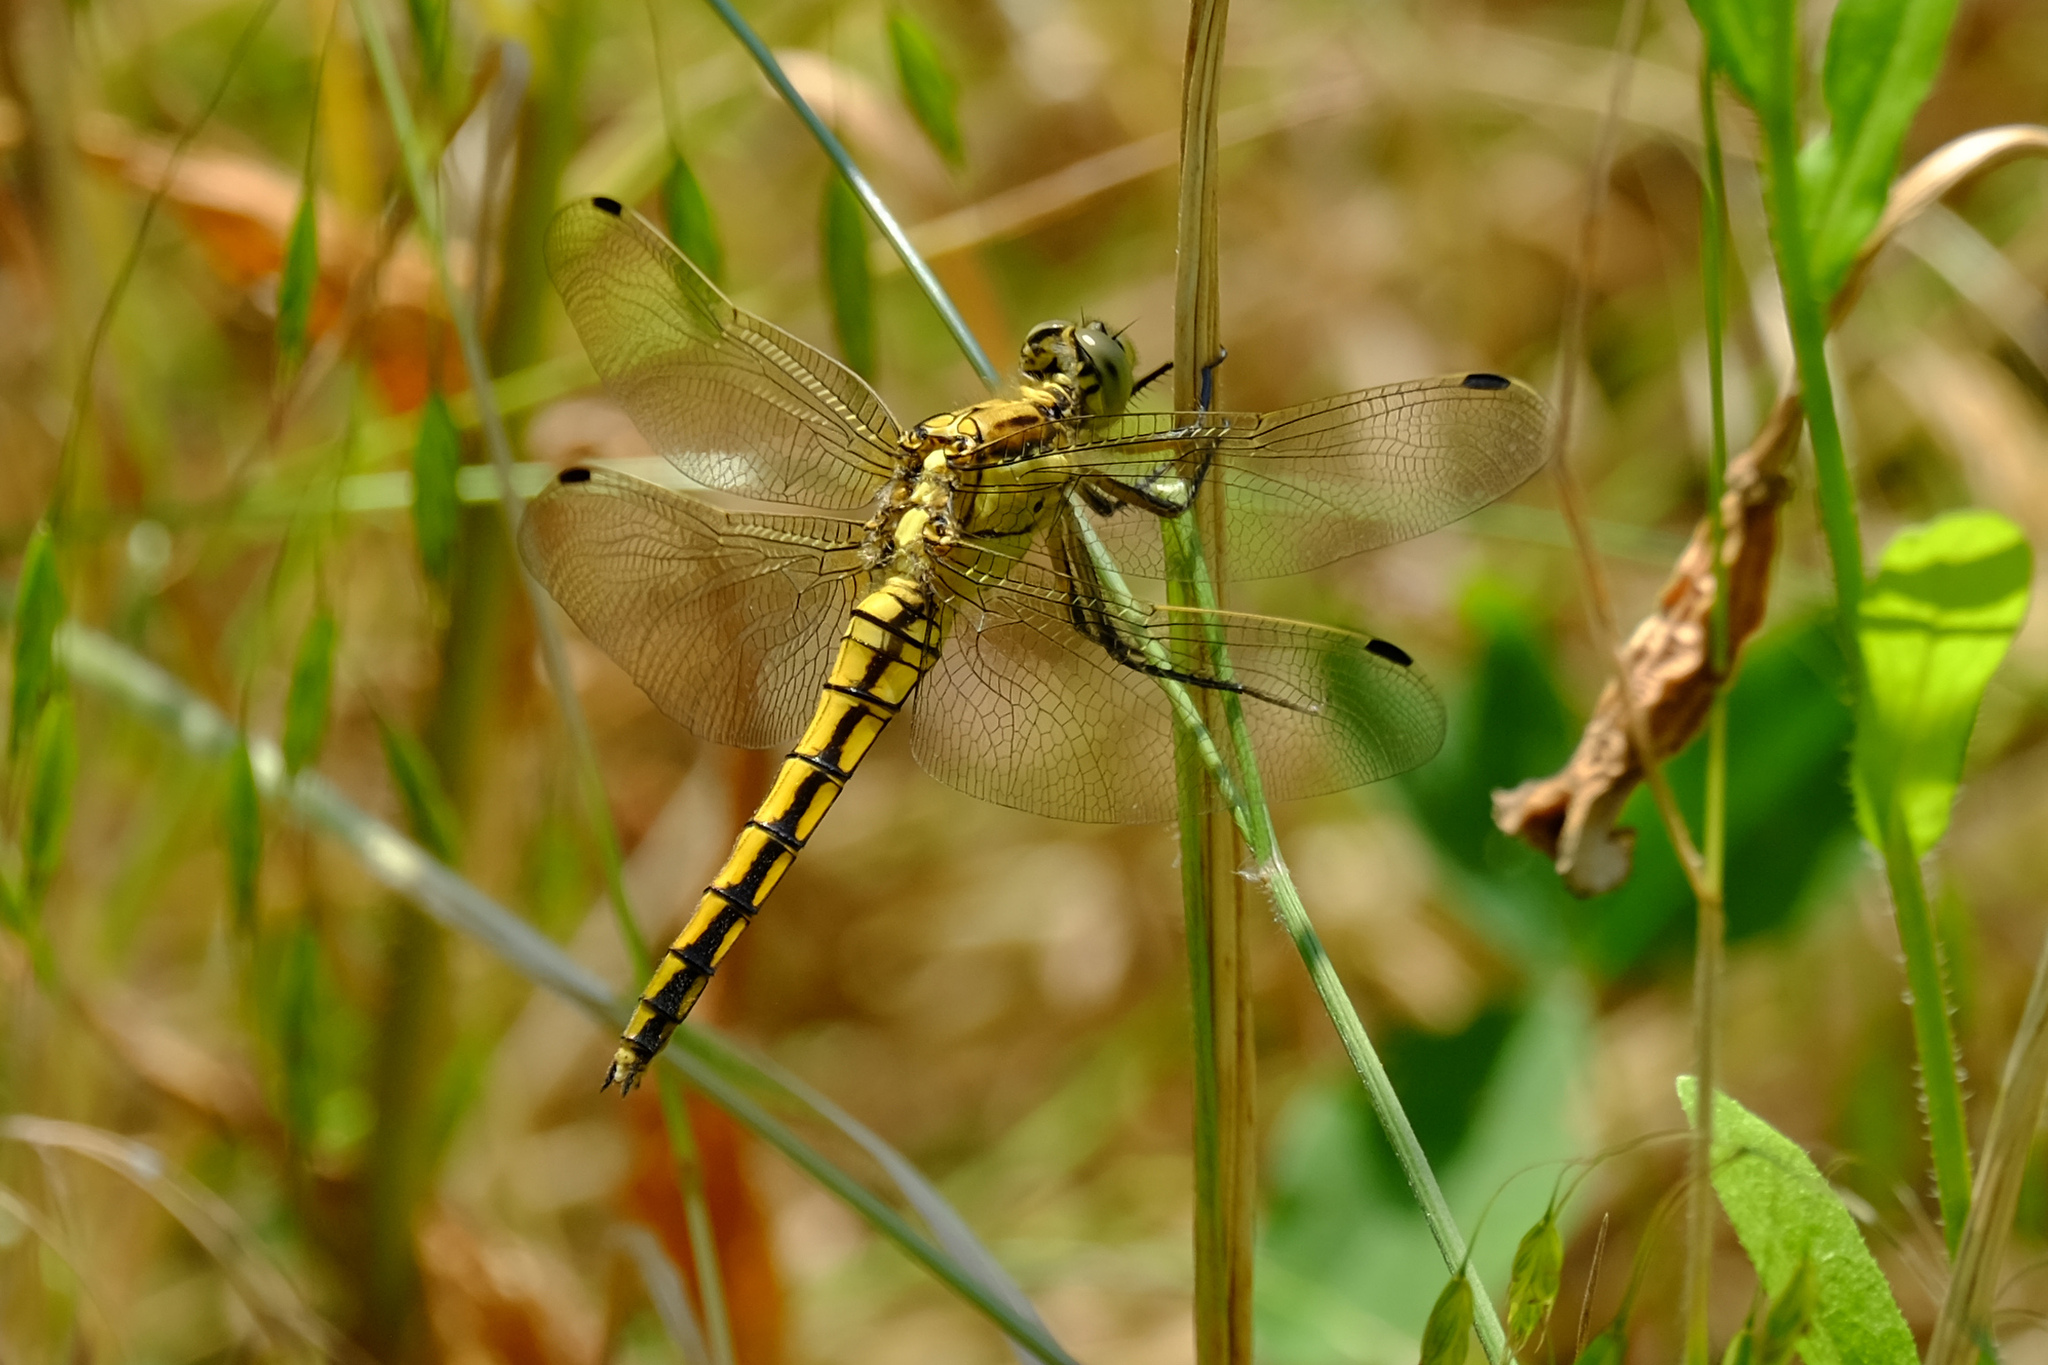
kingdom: Animalia
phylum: Arthropoda
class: Insecta
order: Odonata
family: Libellulidae
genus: Orthetrum
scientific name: Orthetrum cancellatum
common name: Black-tailed skimmer
